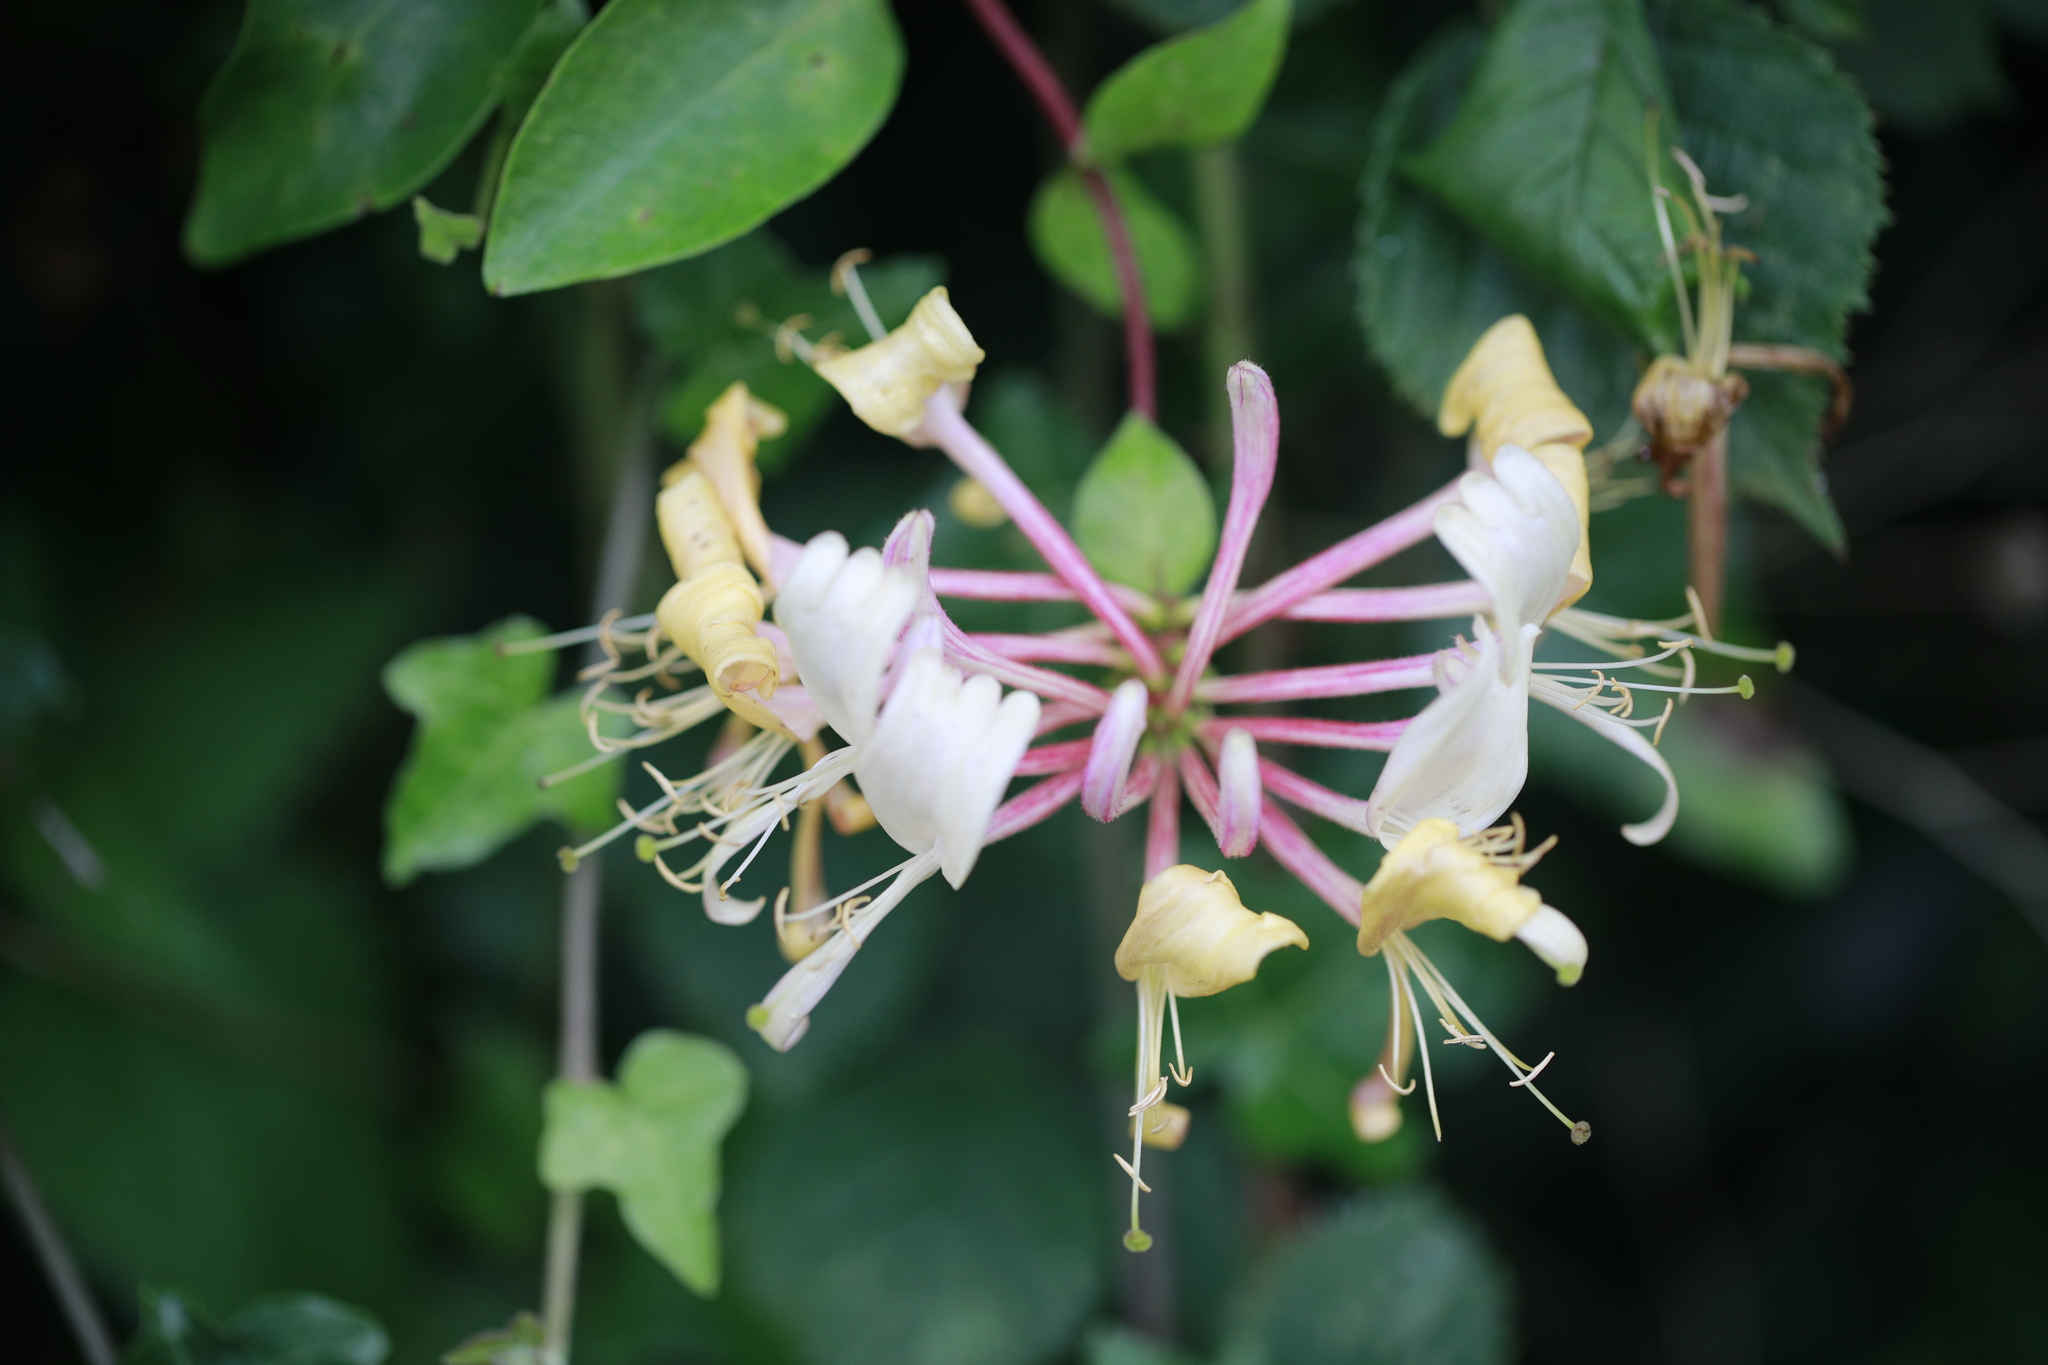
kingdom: Plantae
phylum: Tracheophyta
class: Magnoliopsida
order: Dipsacales
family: Caprifoliaceae
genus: Lonicera
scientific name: Lonicera periclymenum
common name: European honeysuckle
